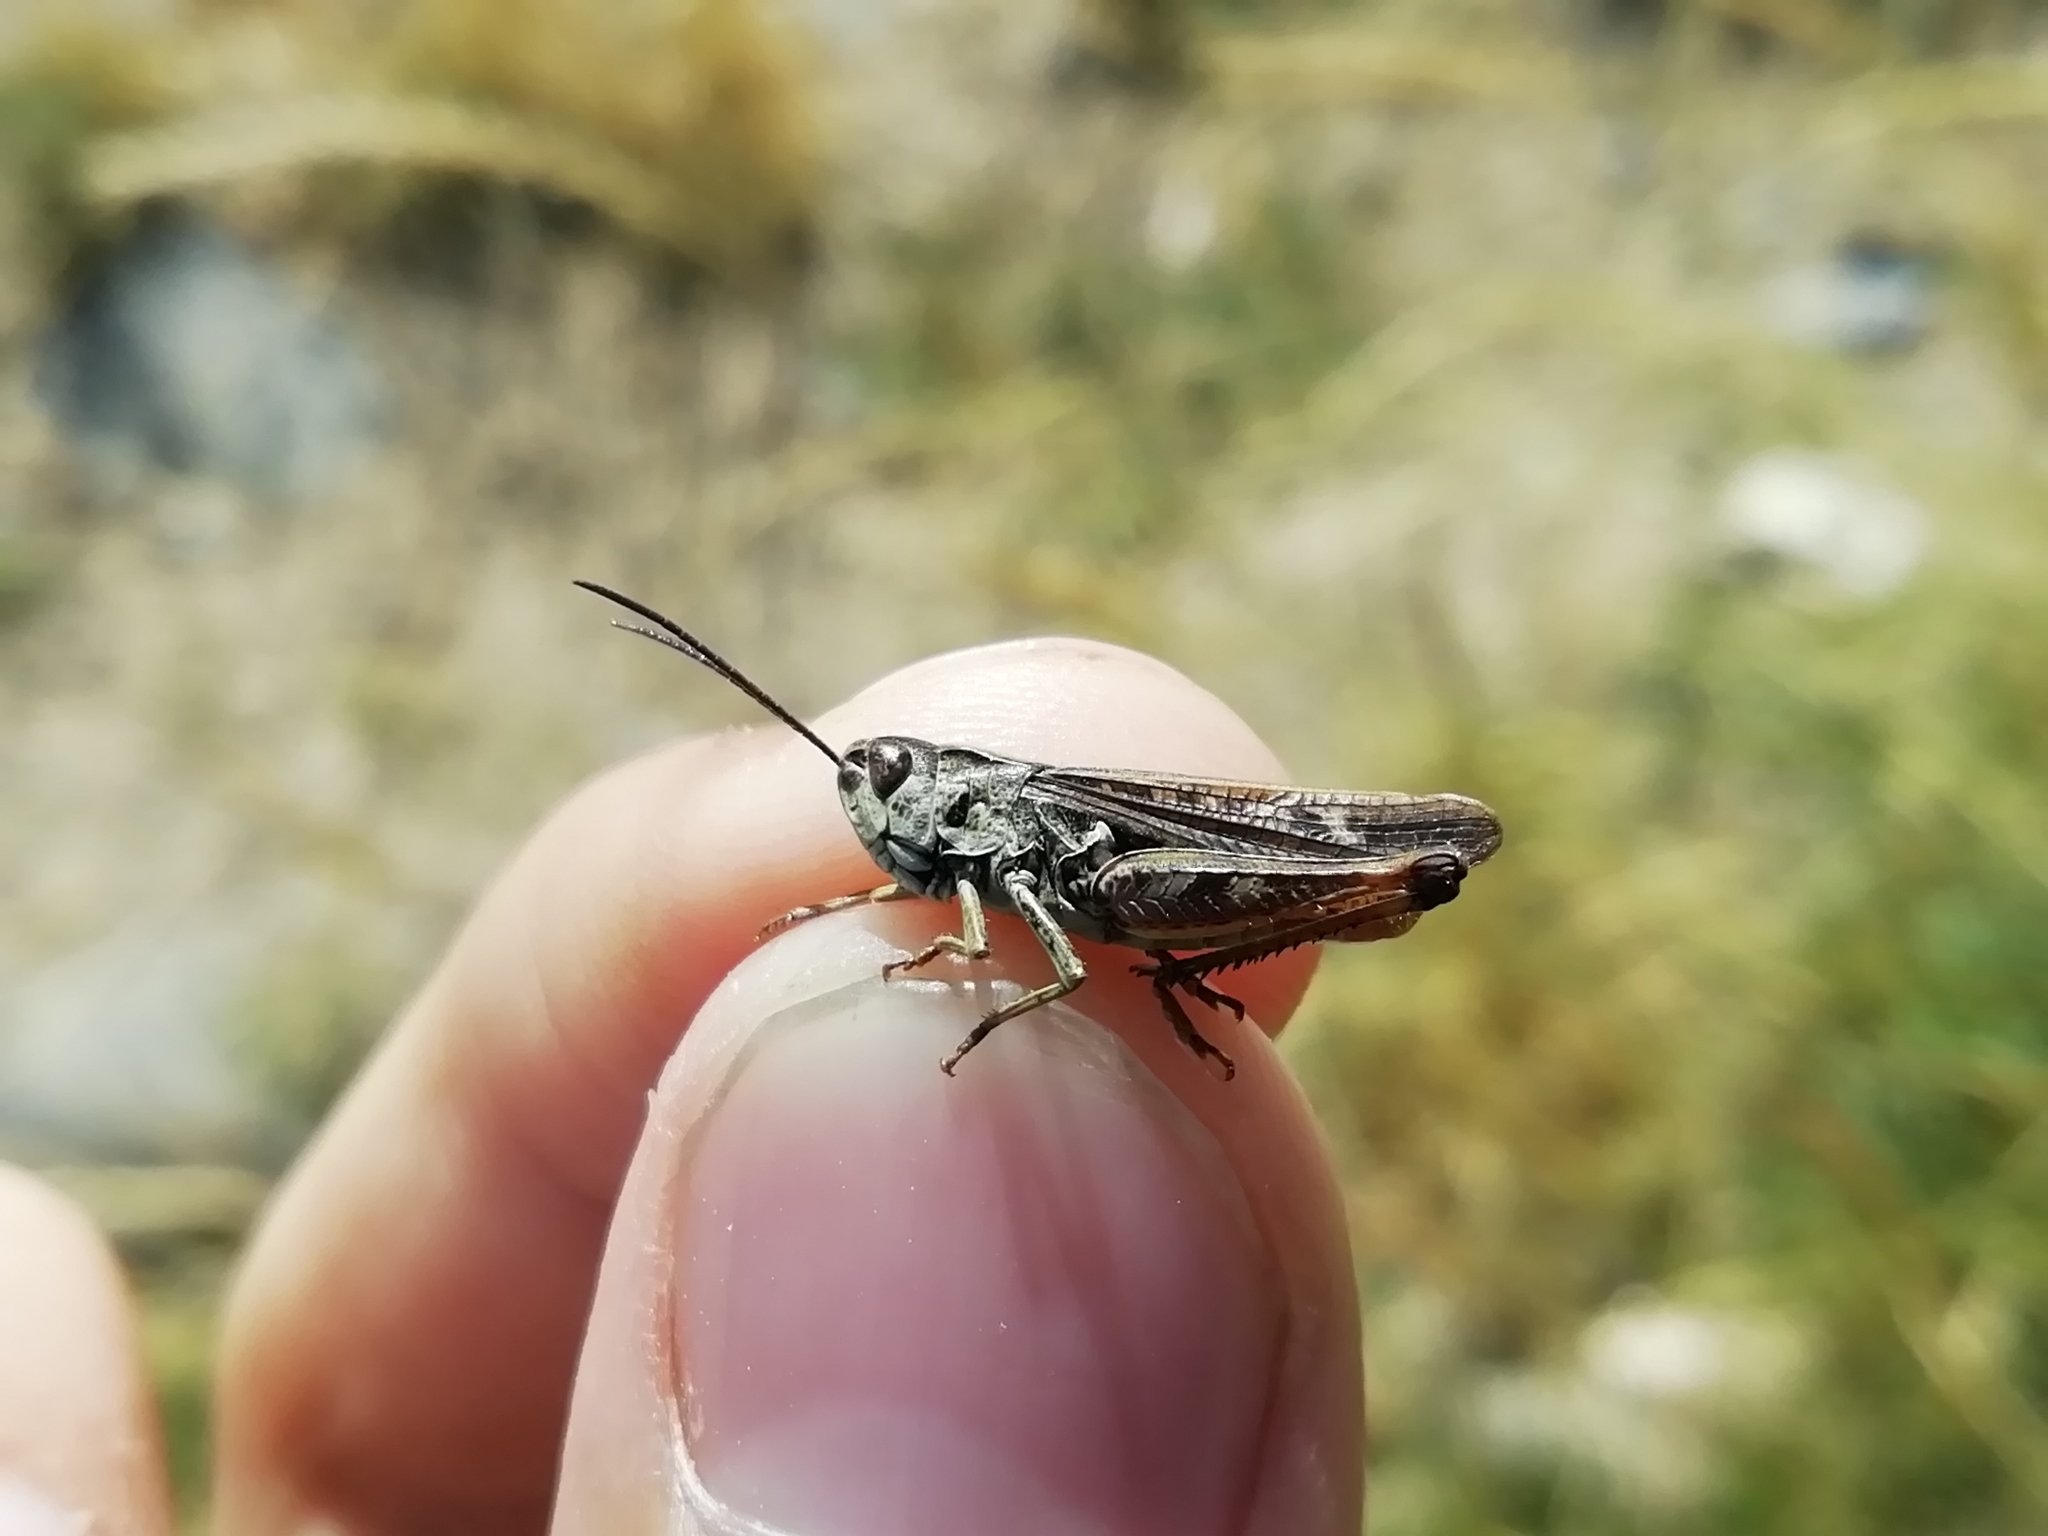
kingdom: Animalia
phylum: Arthropoda
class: Insecta
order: Orthoptera
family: Acrididae
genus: Omocestus
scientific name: Omocestus haemorrhoidalis
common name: Orange-tipped grasshopper
